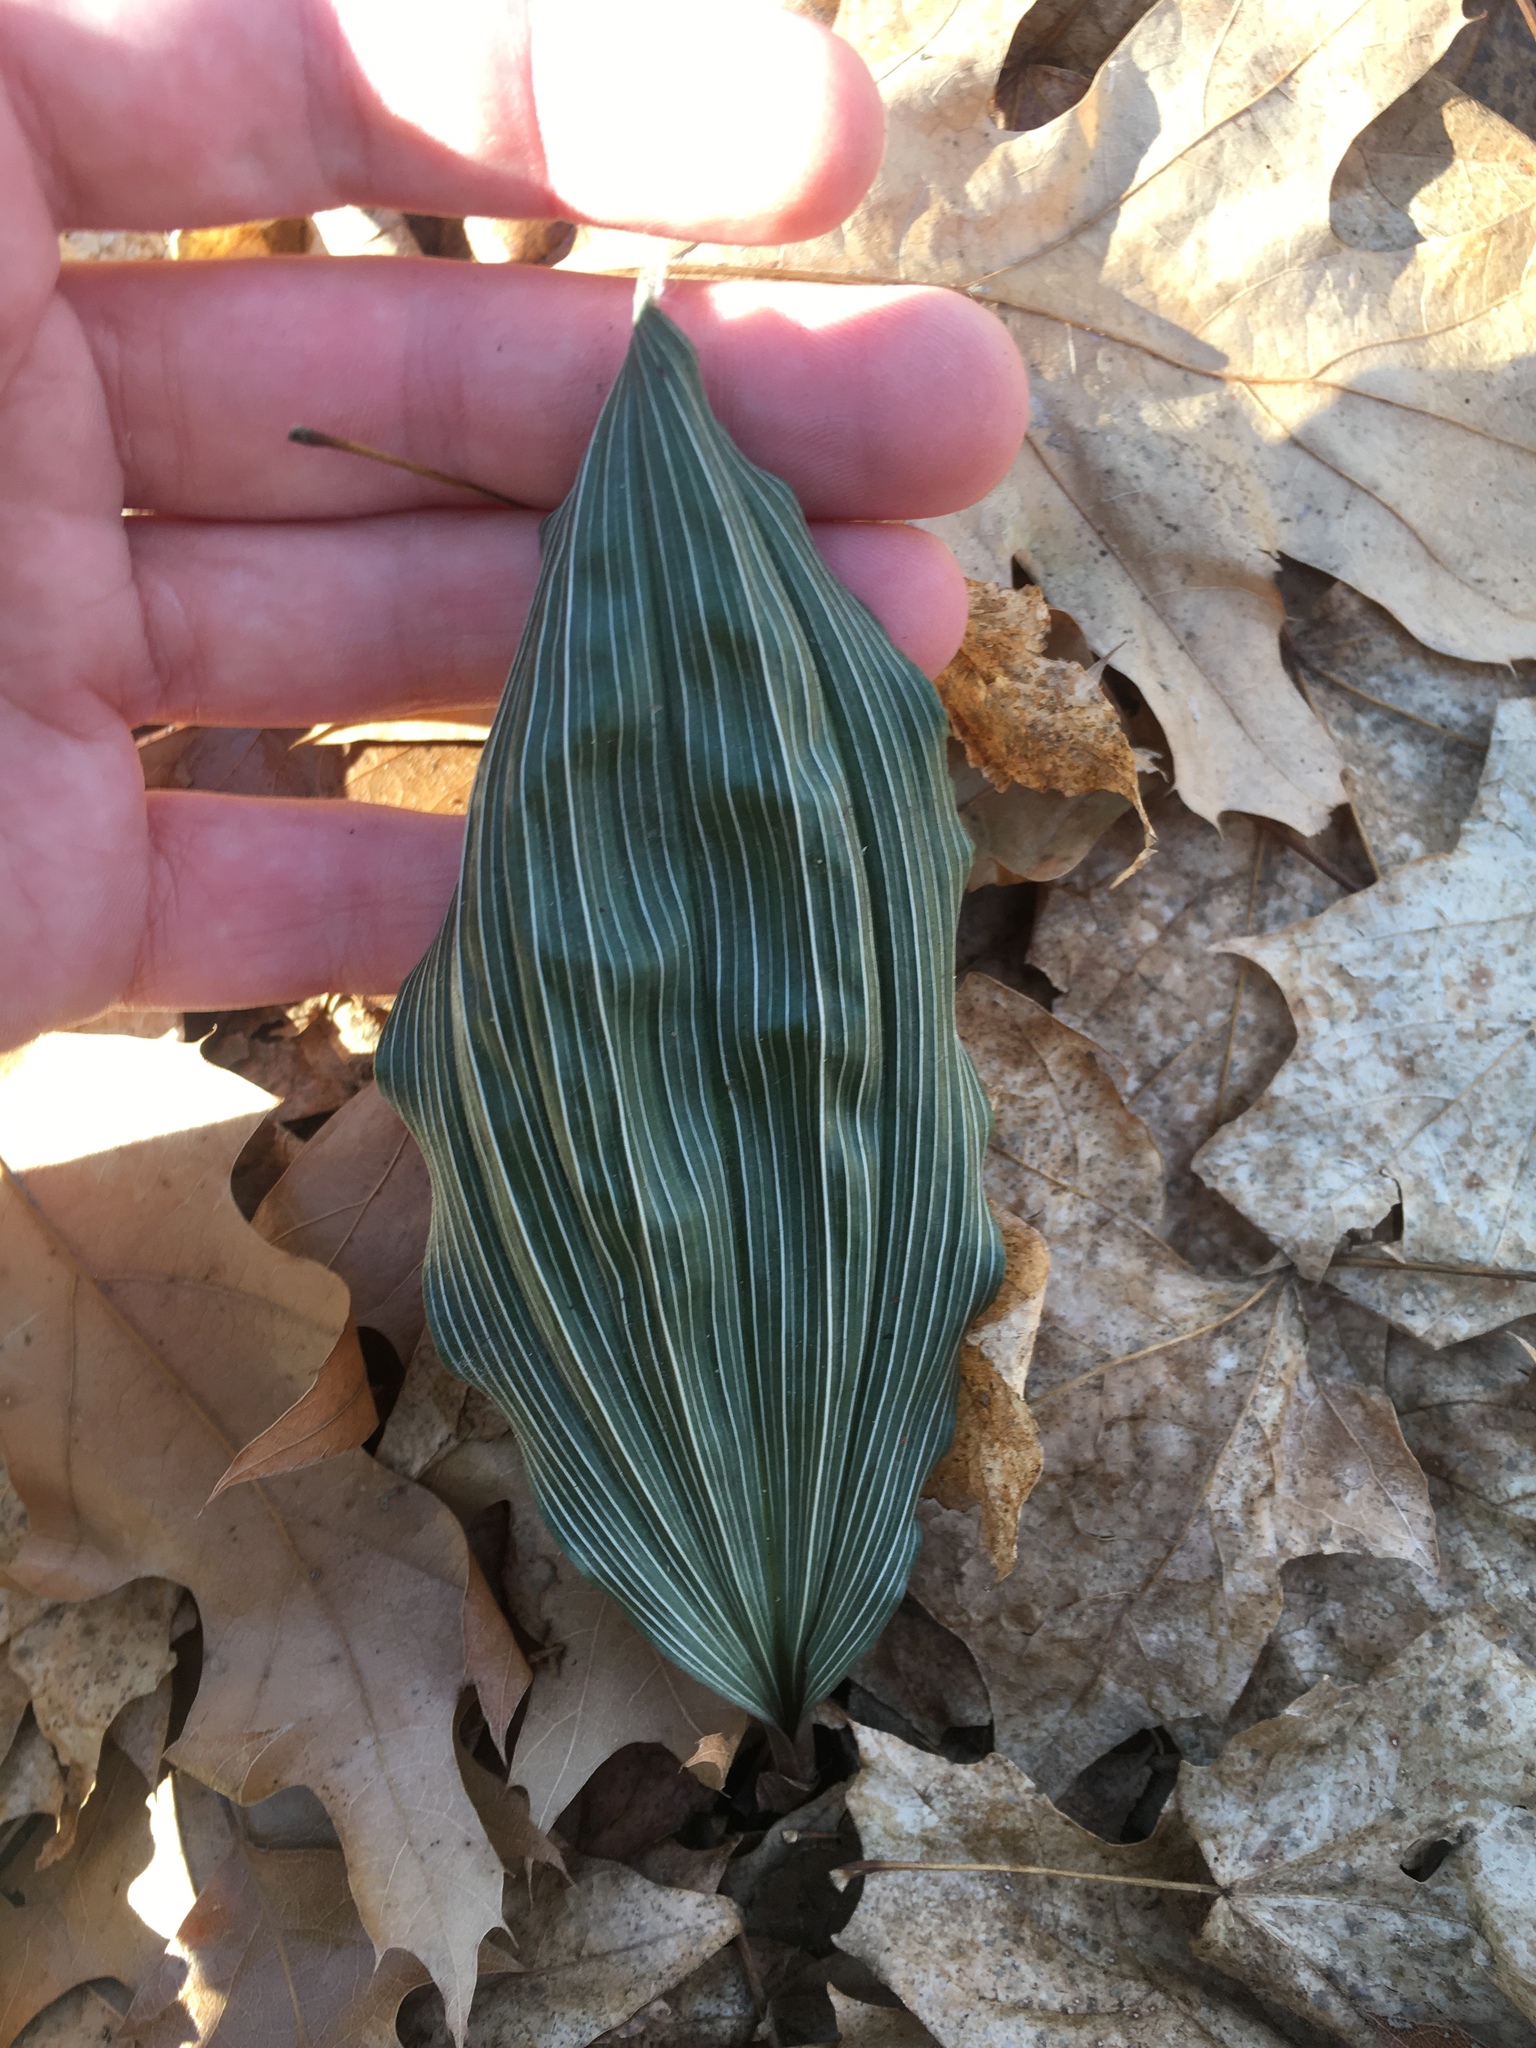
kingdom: Plantae
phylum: Tracheophyta
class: Liliopsida
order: Asparagales
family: Orchidaceae
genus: Aplectrum
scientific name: Aplectrum hyemale
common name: Adam-and-eve
